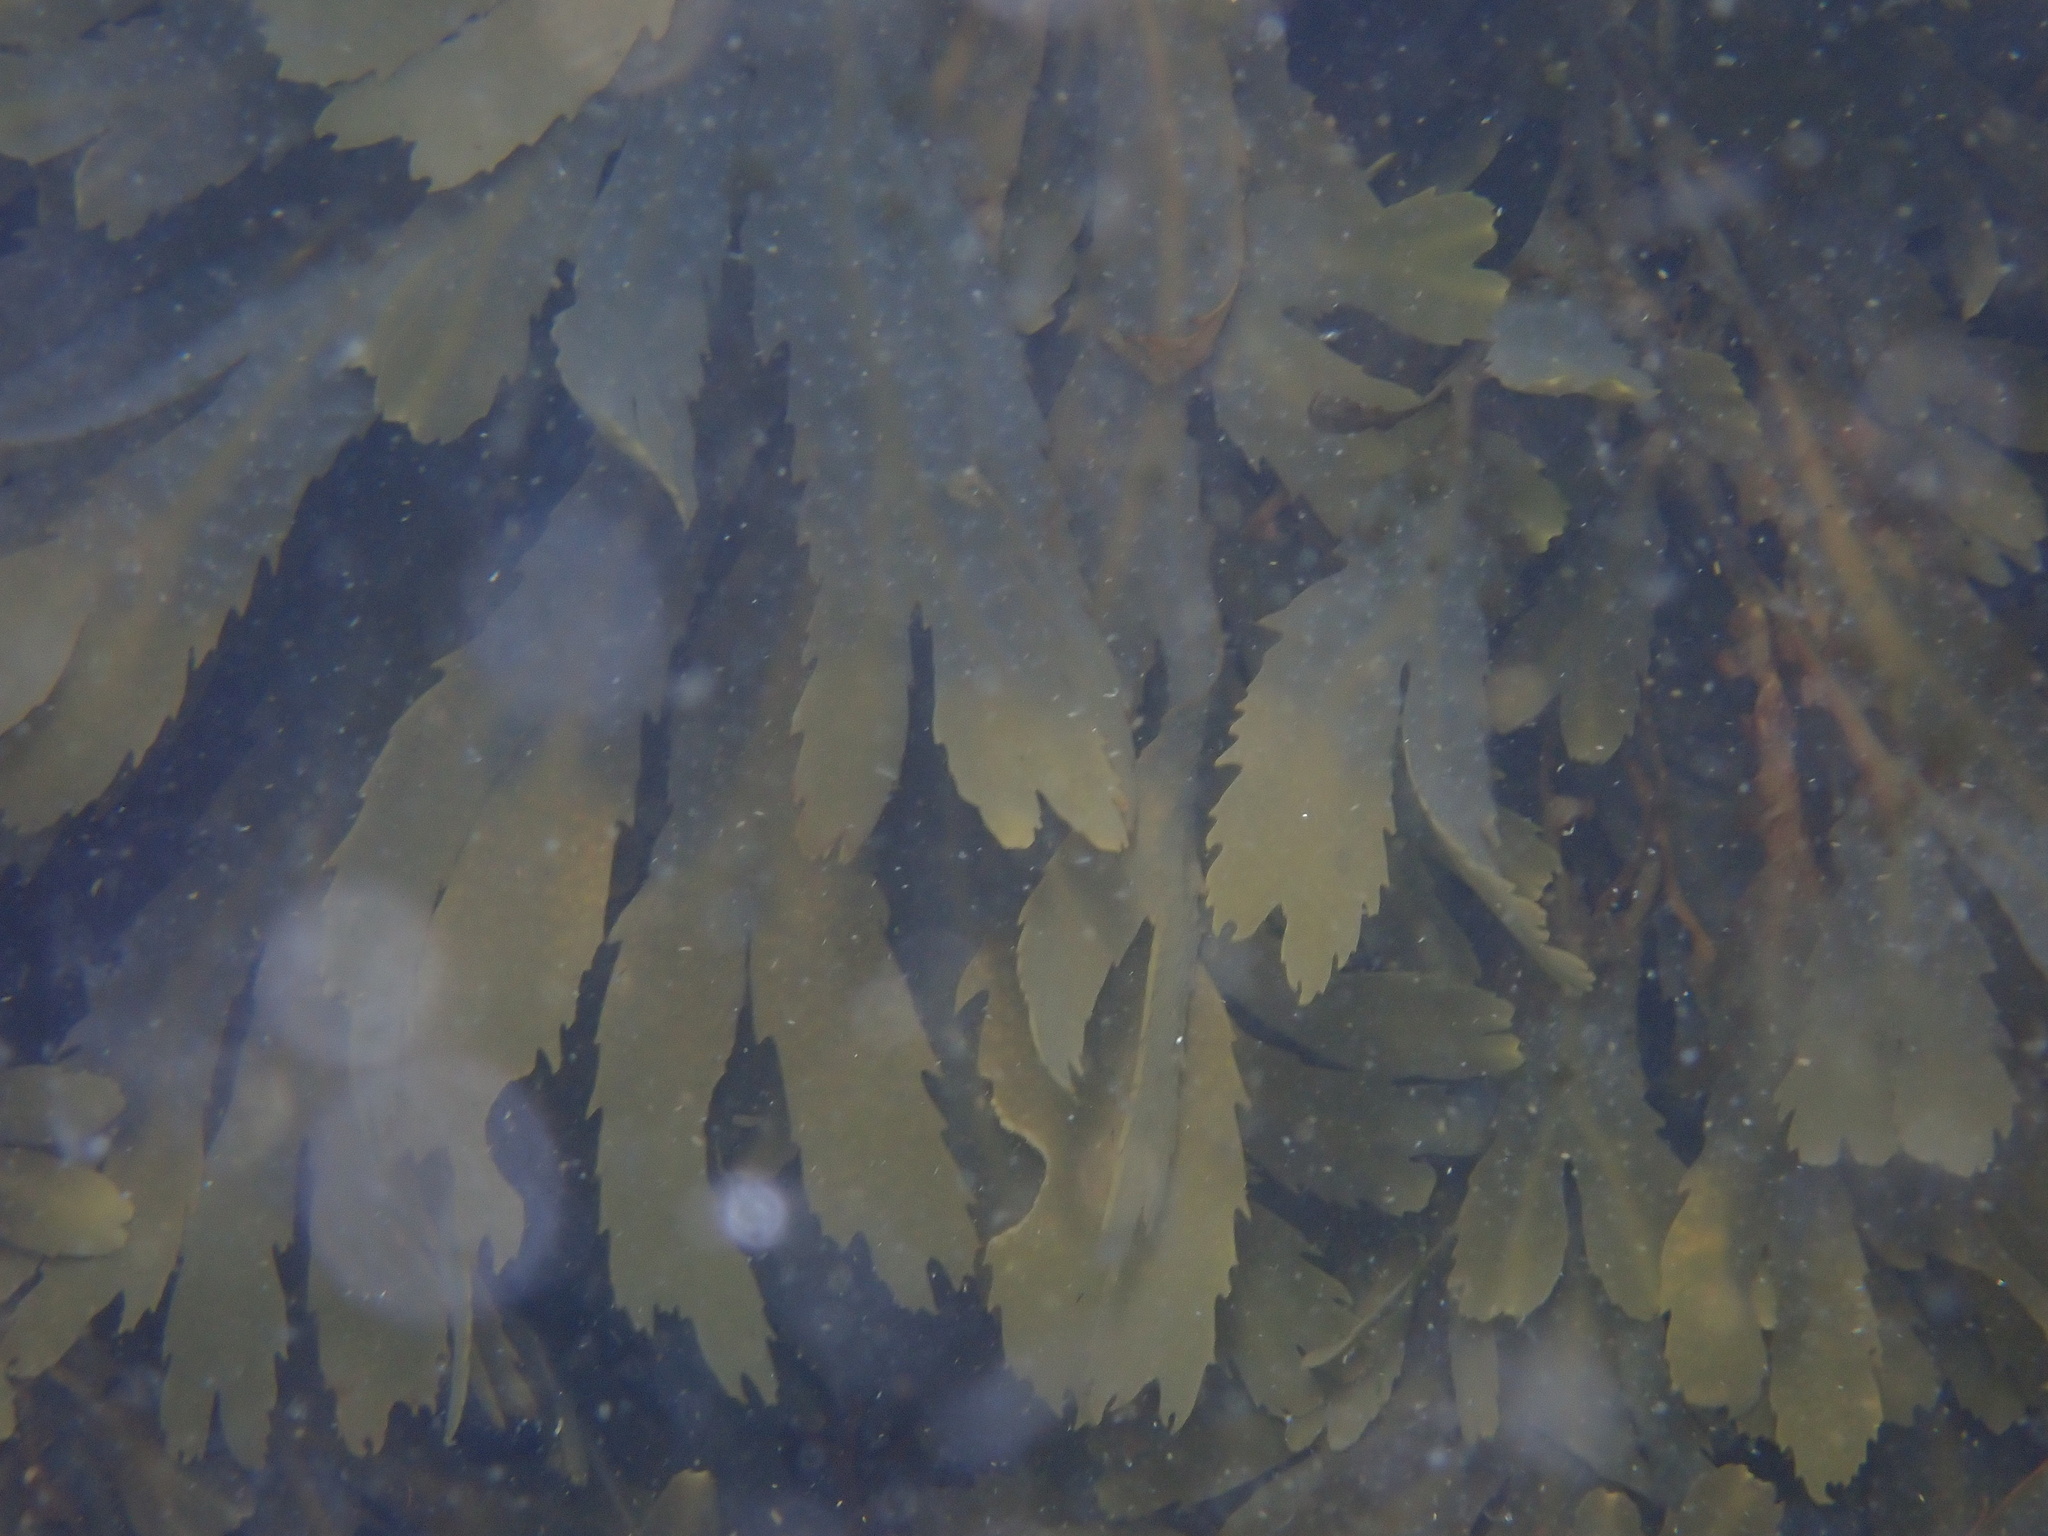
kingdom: Chromista
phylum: Ochrophyta
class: Phaeophyceae
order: Fucales
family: Fucaceae
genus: Fucus
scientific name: Fucus serratus
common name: Toothed wrack
